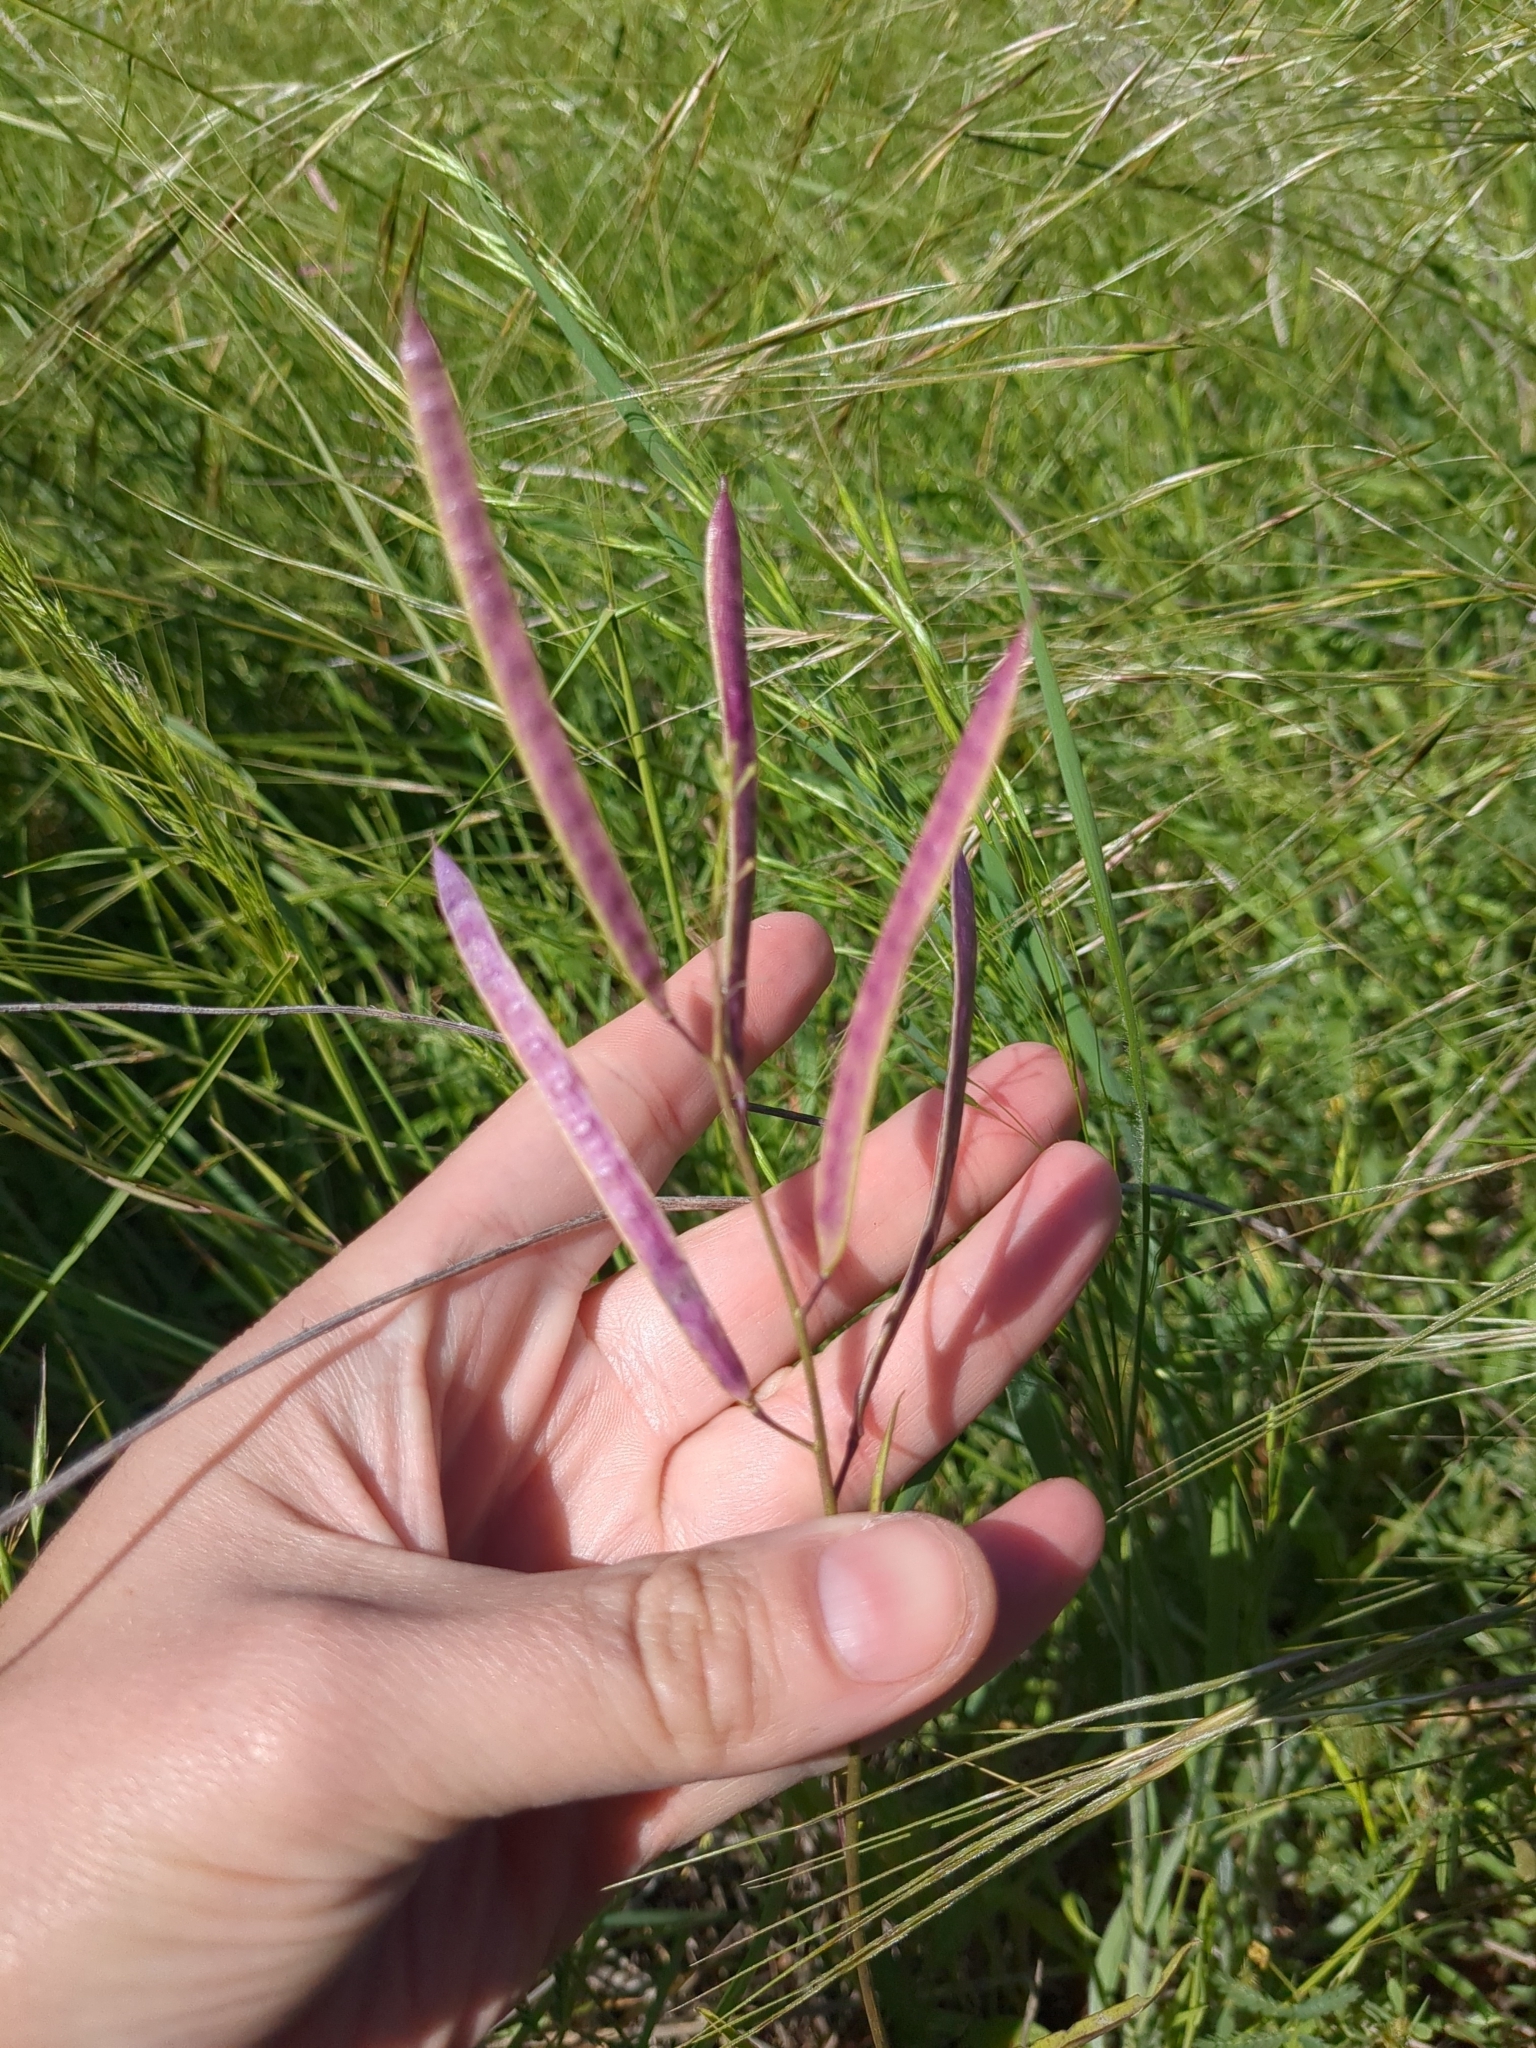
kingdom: Plantae
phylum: Tracheophyta
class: Magnoliopsida
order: Brassicales
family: Brassicaceae
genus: Streptanthus
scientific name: Streptanthus petiolaris
